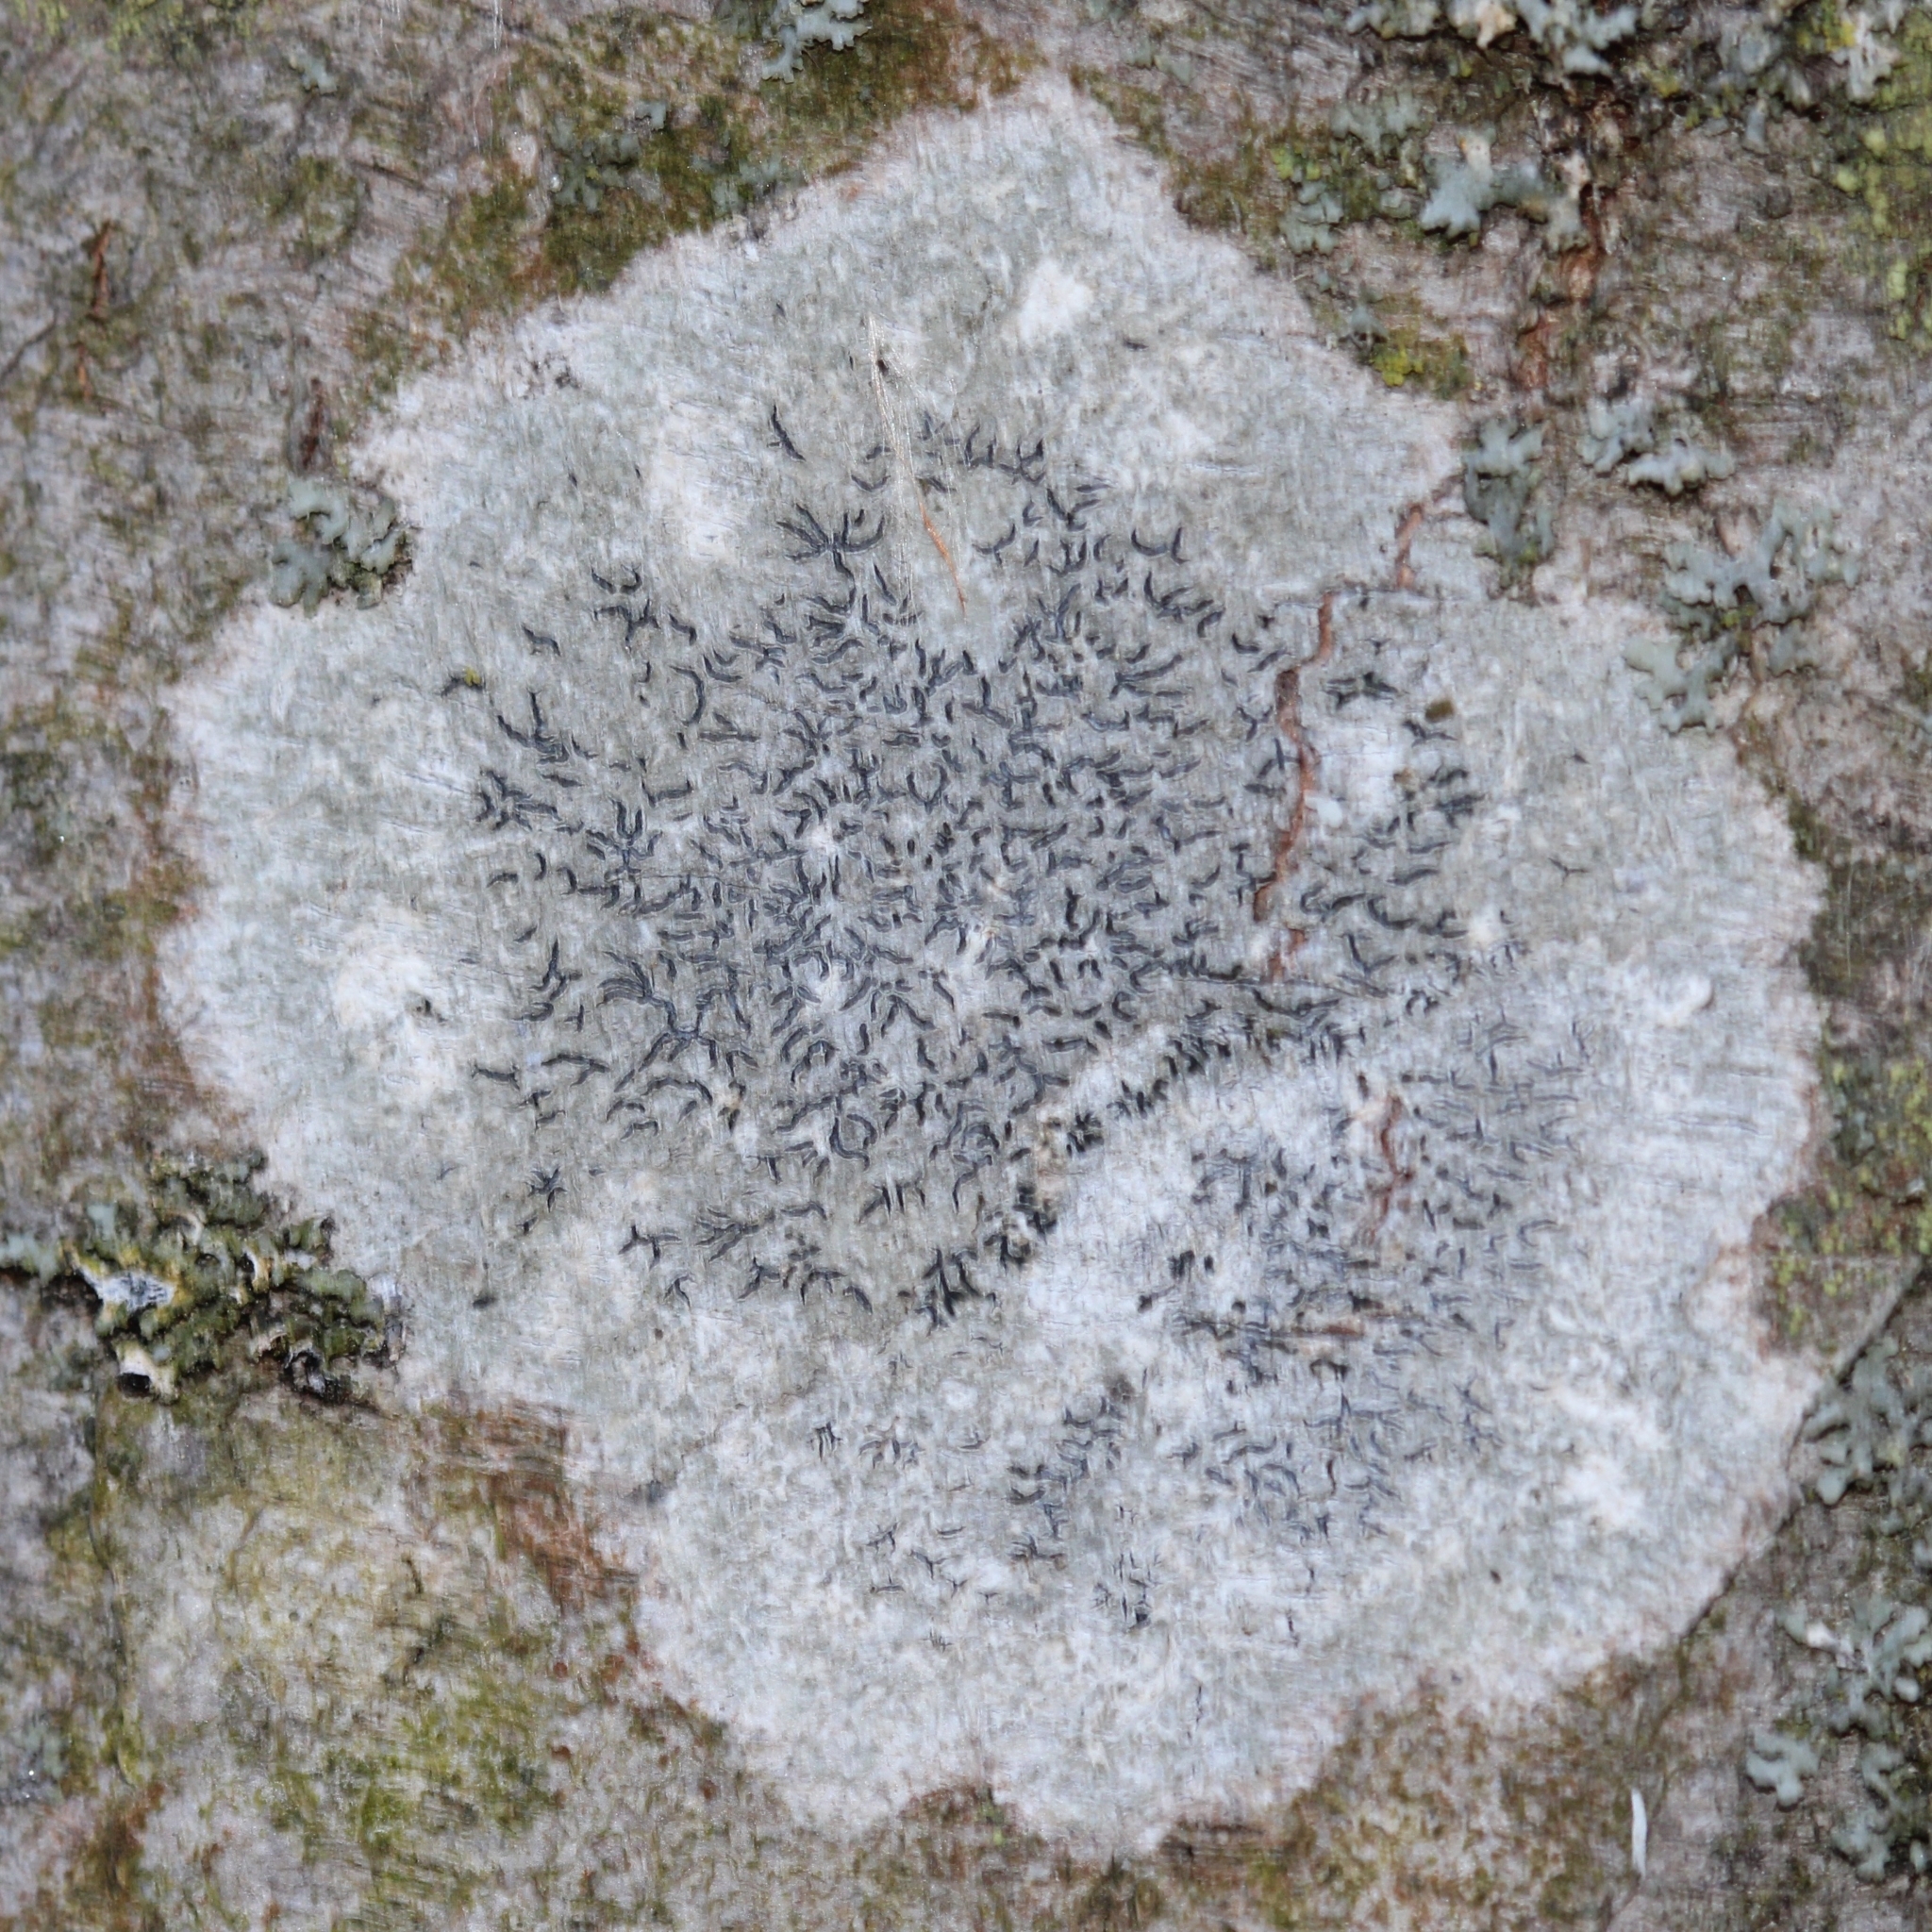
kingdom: Fungi
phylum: Ascomycota
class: Lecanoromycetes
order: Ostropales
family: Graphidaceae
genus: Graphis
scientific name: Graphis scripta
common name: Script lichen
